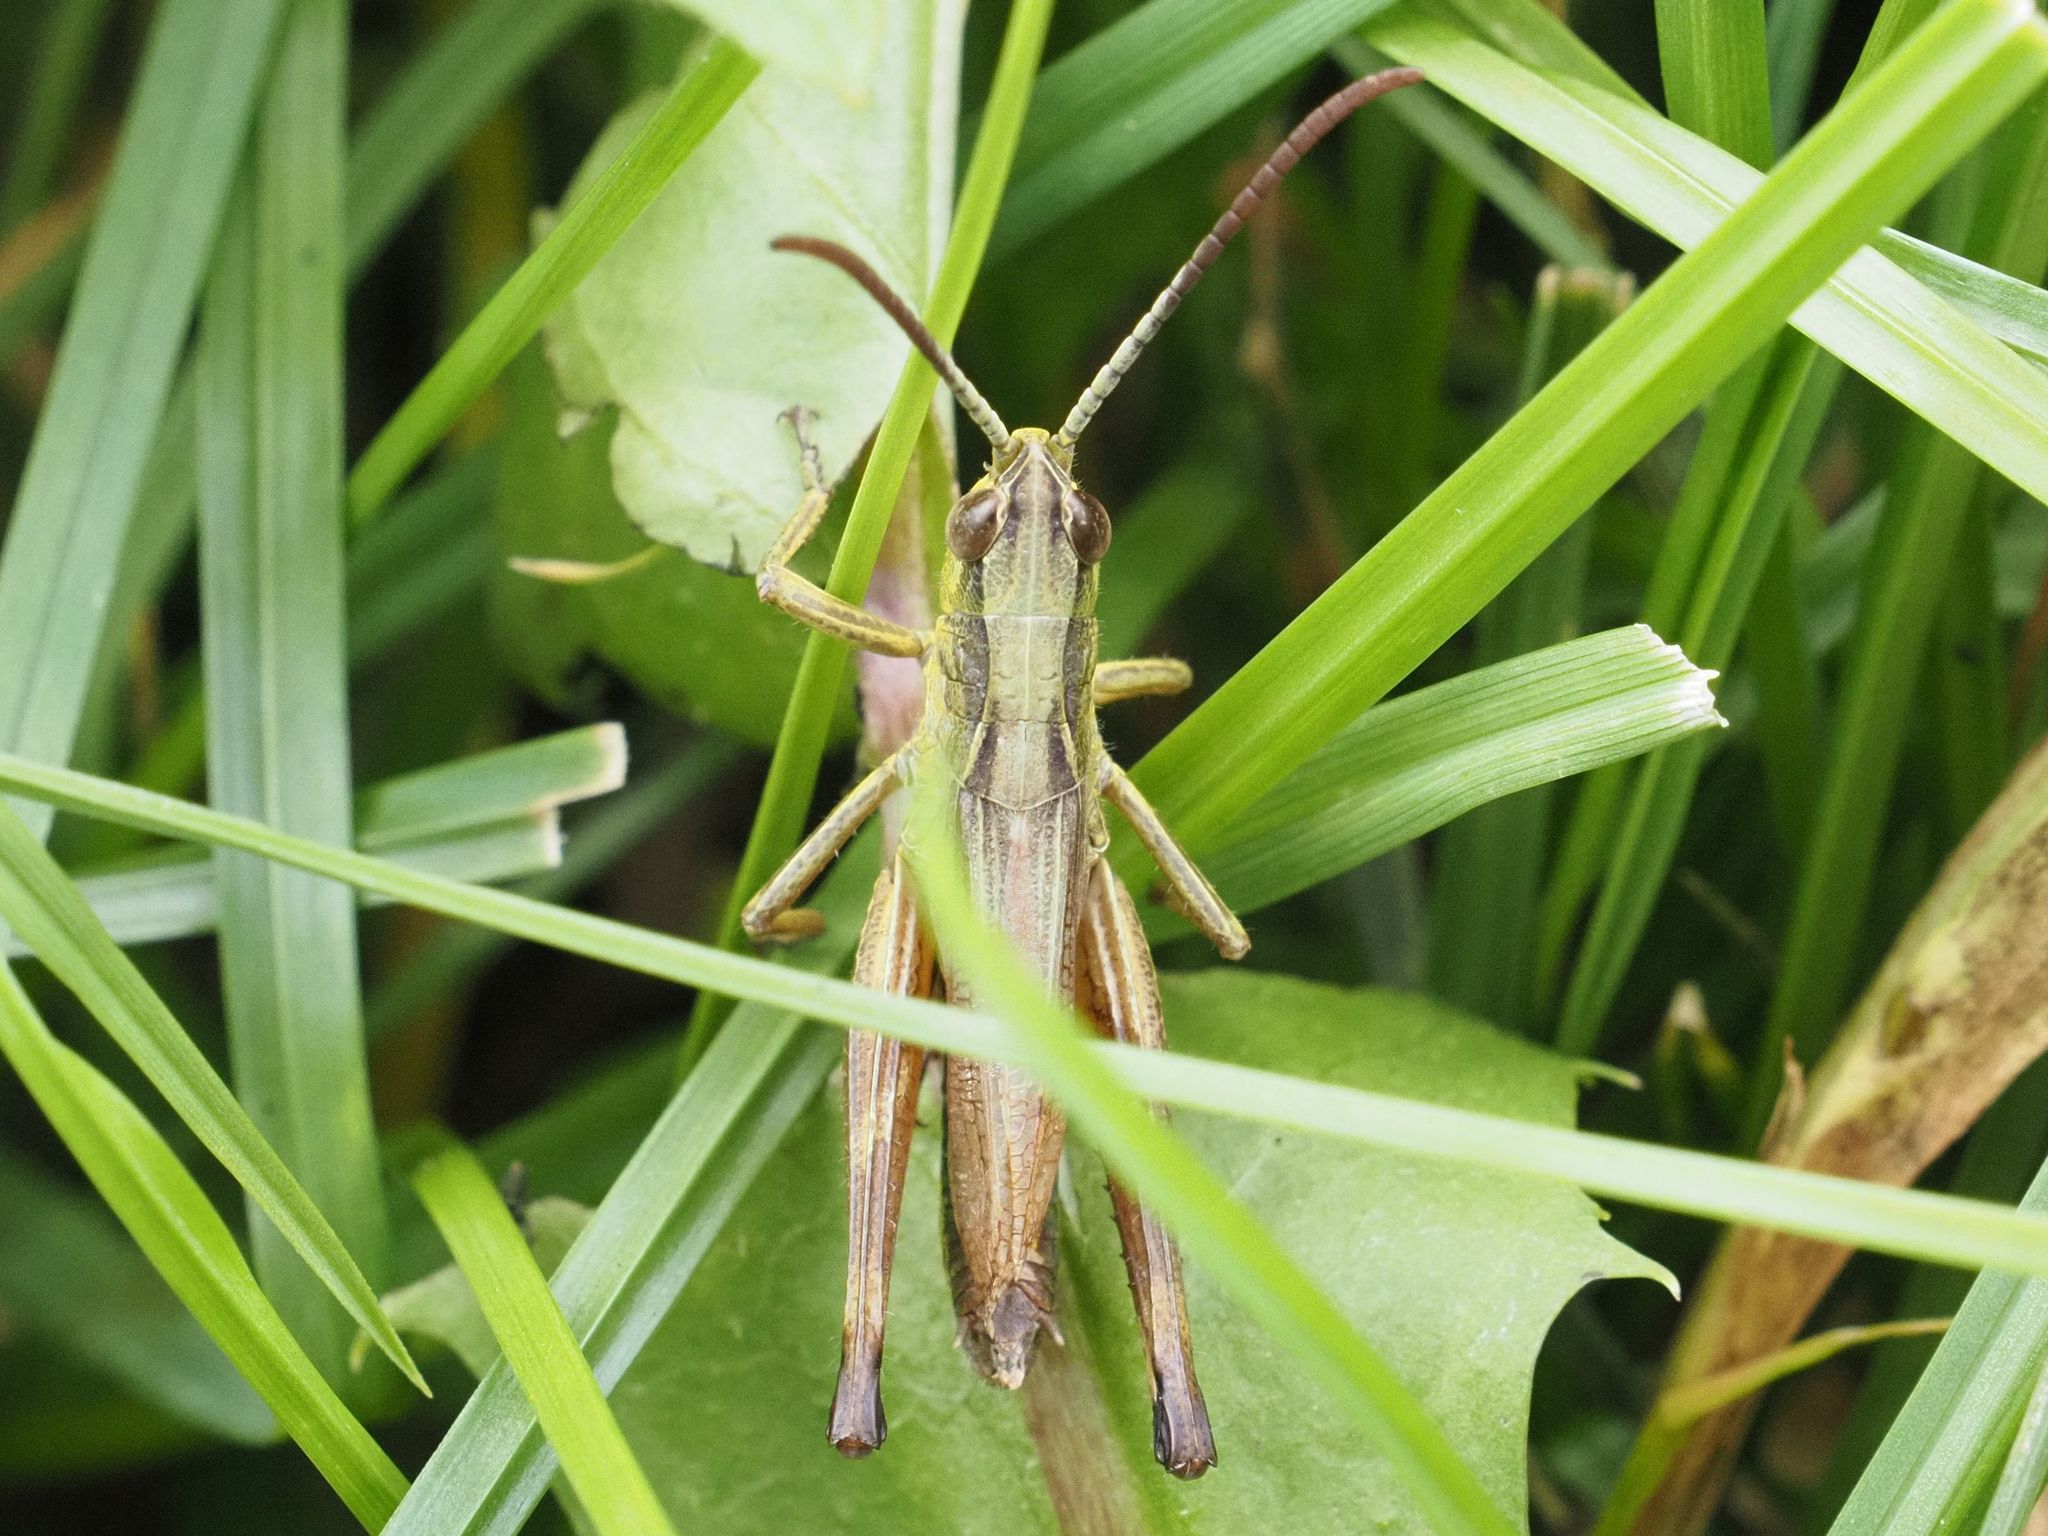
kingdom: Animalia
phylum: Arthropoda
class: Insecta
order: Orthoptera
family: Acrididae
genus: Pseudochorthippus
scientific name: Pseudochorthippus parallelus
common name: Meadow grasshopper
